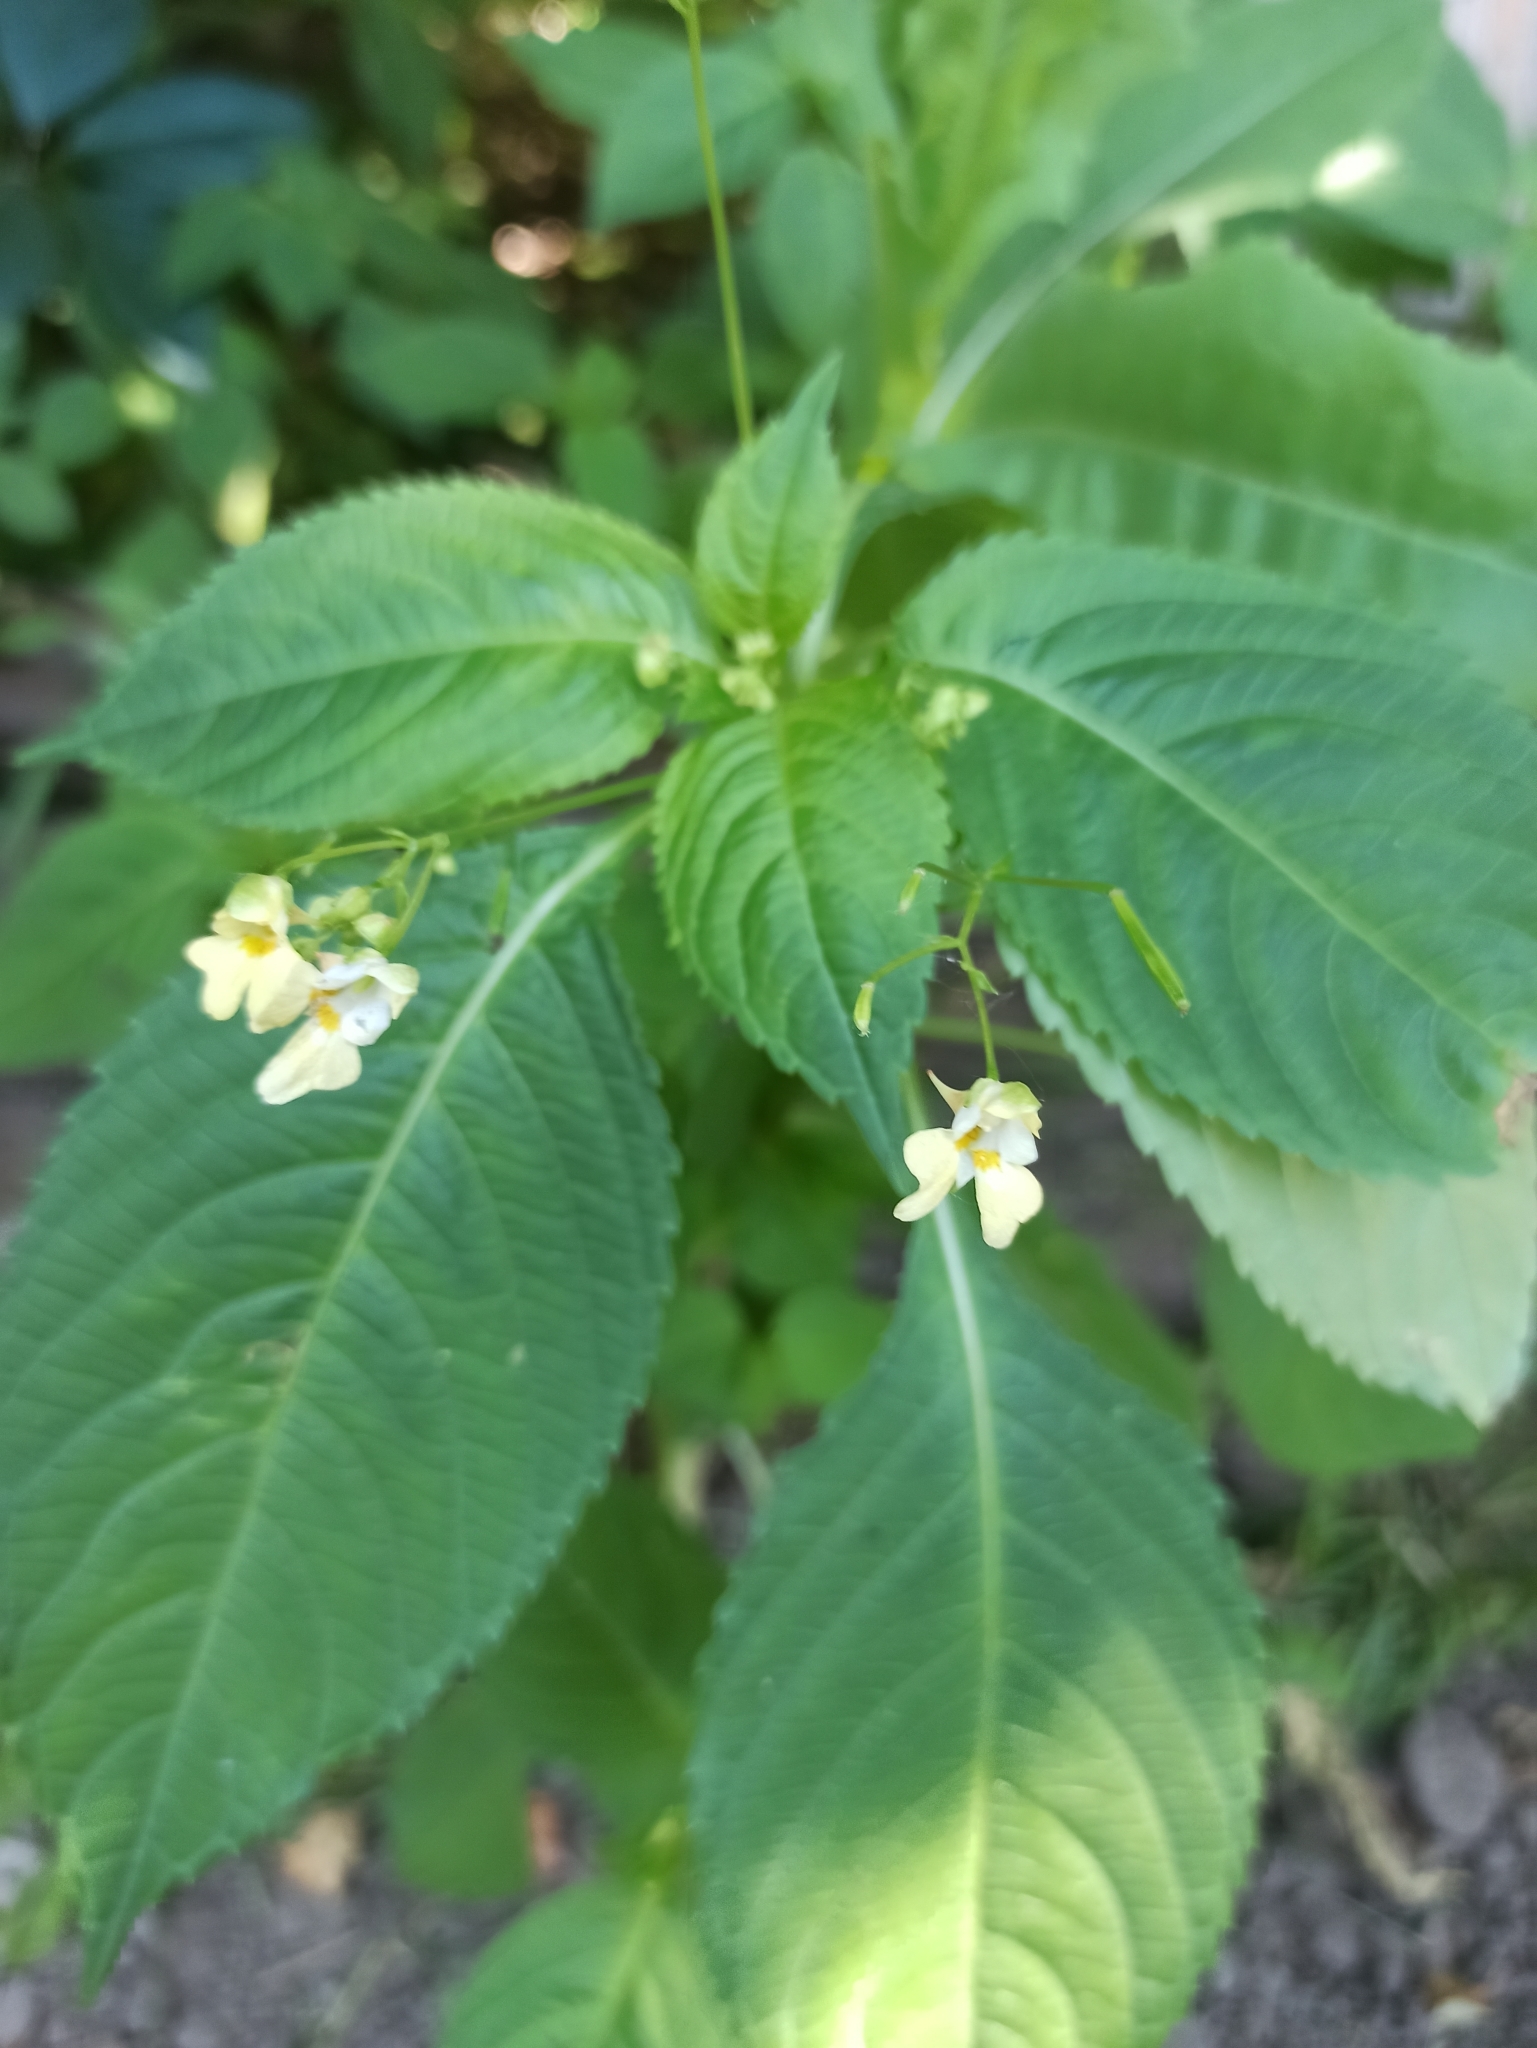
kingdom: Plantae
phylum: Tracheophyta
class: Magnoliopsida
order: Ericales
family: Balsaminaceae
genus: Impatiens
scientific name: Impatiens parviflora
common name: Small balsam
